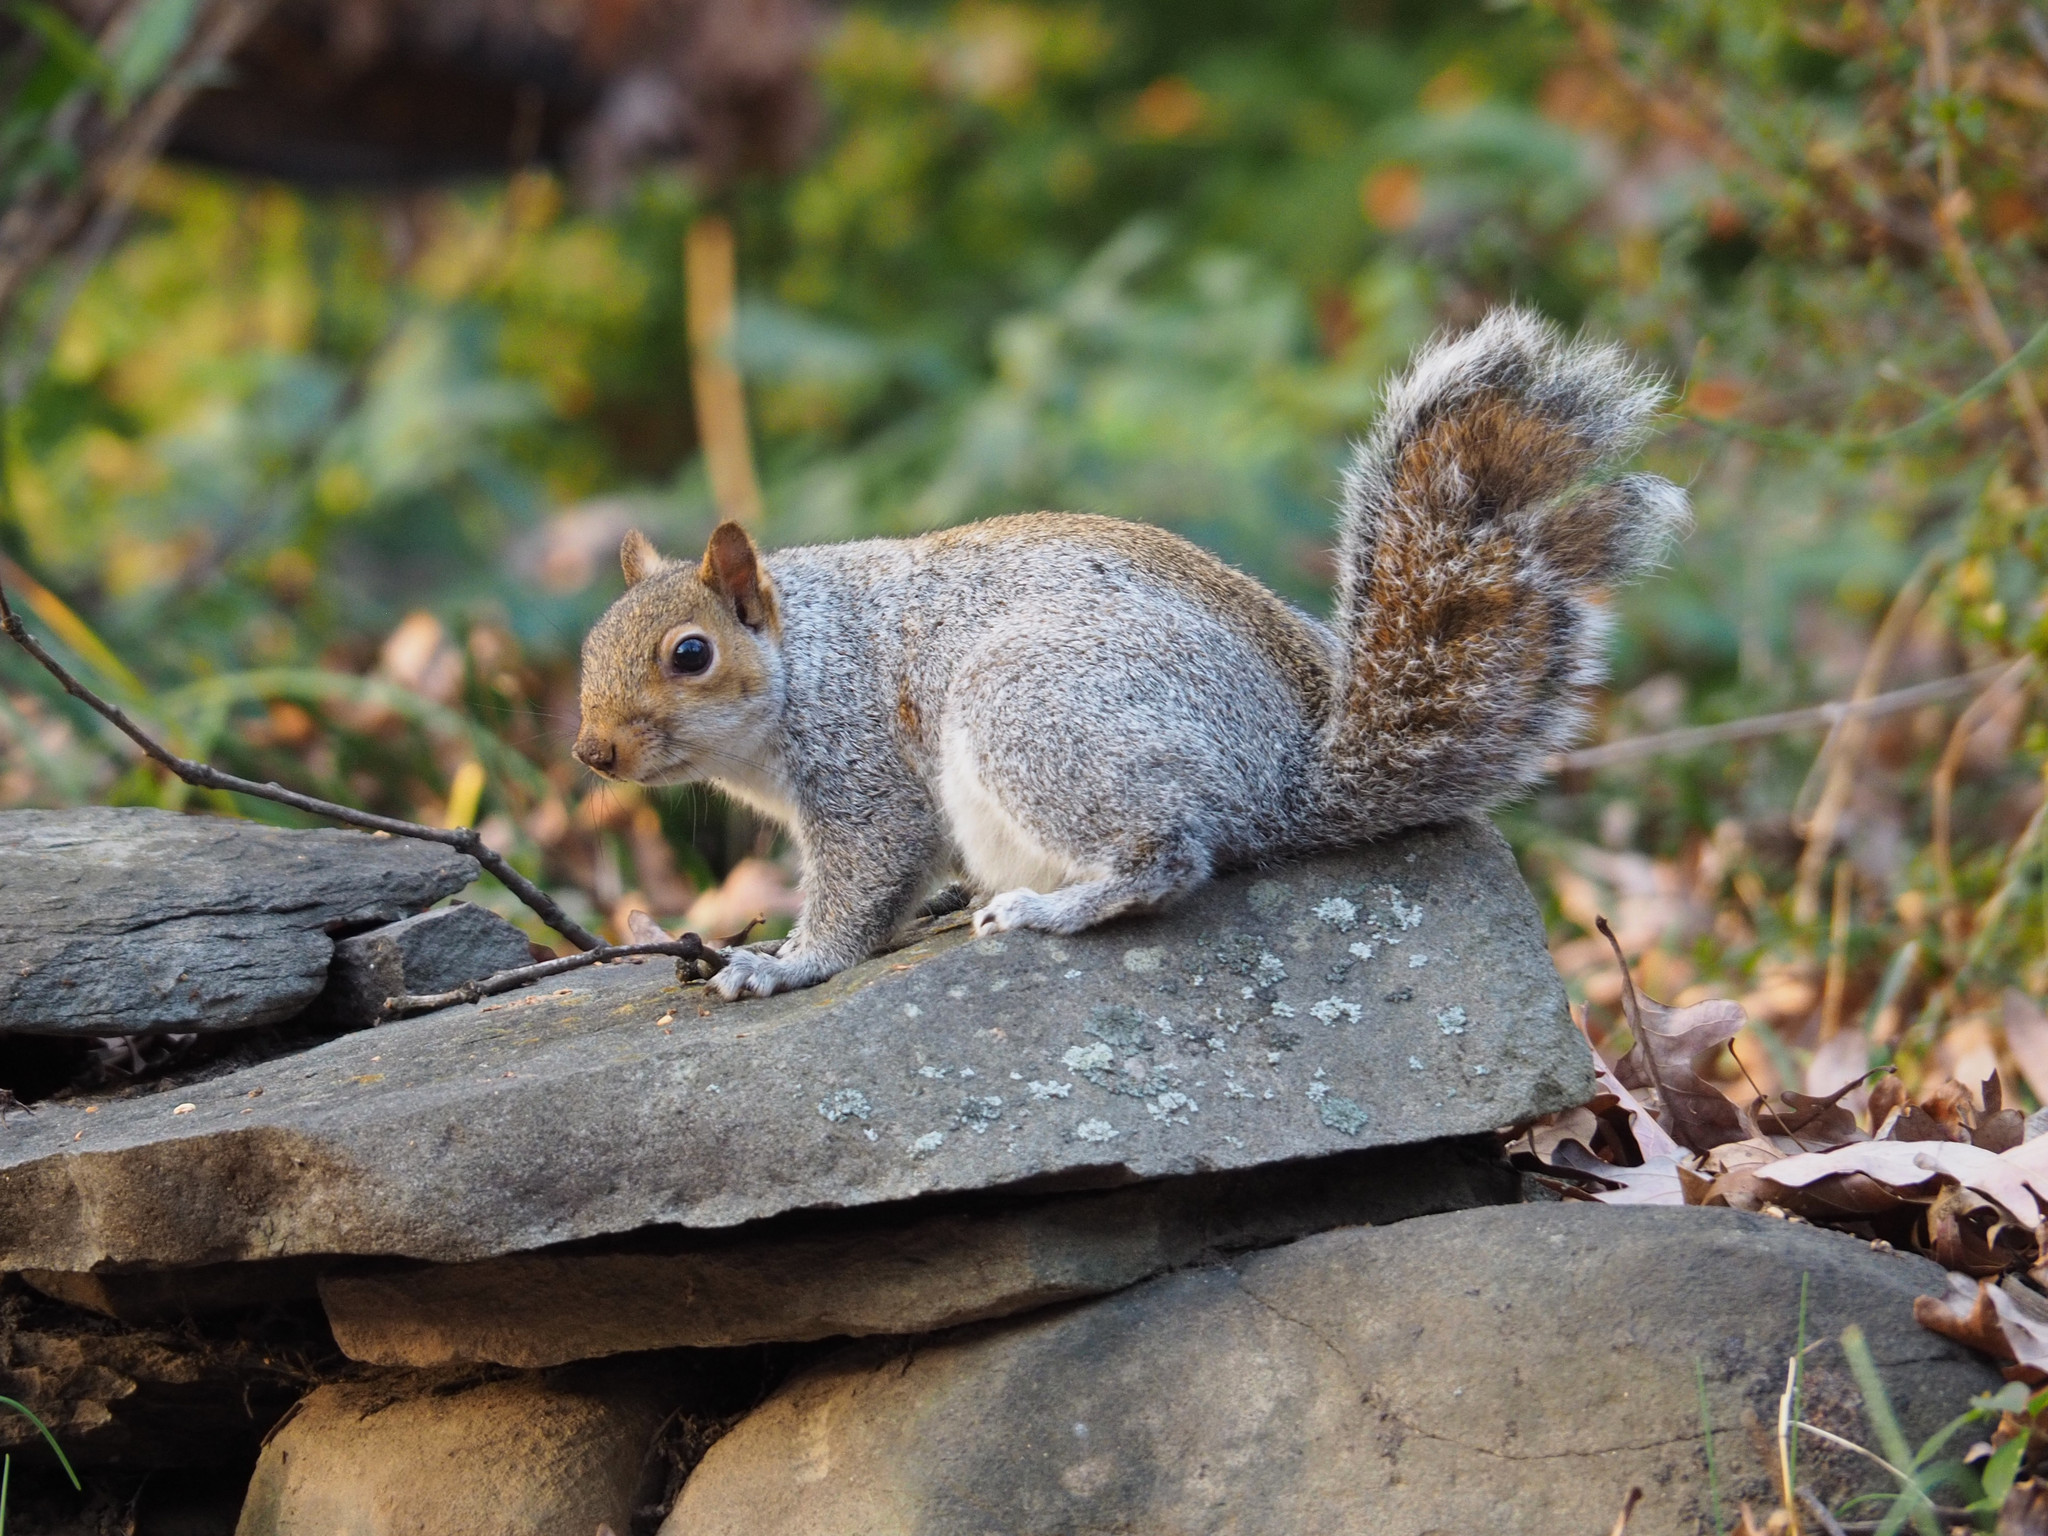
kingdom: Animalia
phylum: Chordata
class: Mammalia
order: Rodentia
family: Sciuridae
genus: Sciurus
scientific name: Sciurus carolinensis
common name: Eastern gray squirrel
